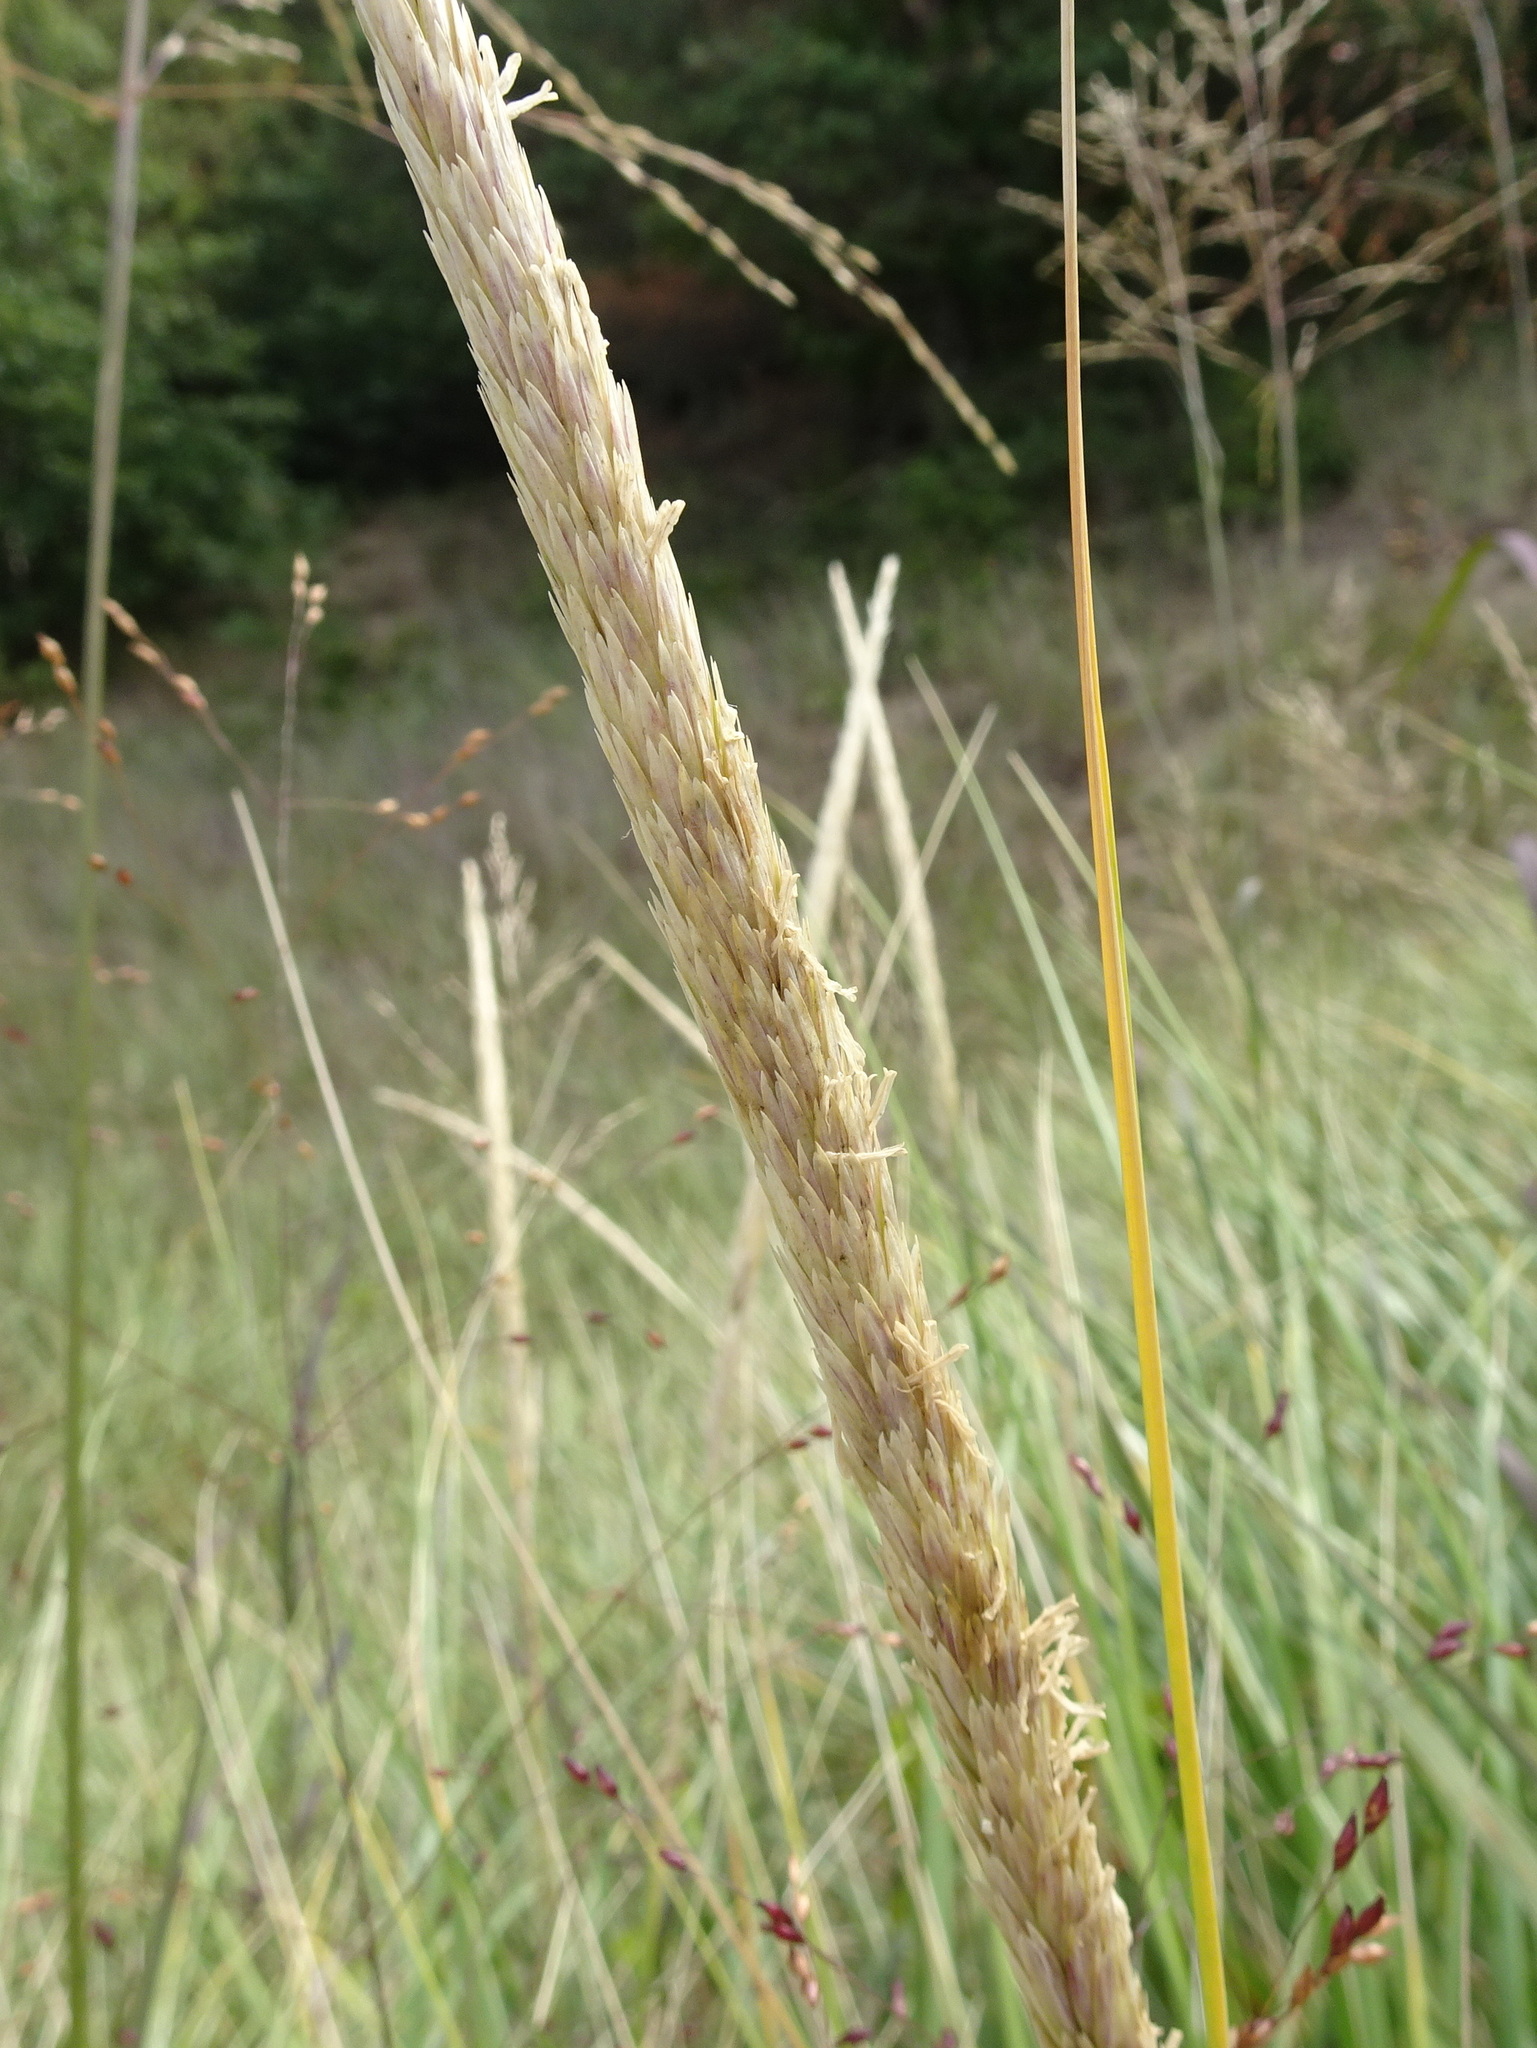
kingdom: Plantae
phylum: Tracheophyta
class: Liliopsida
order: Poales
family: Poaceae
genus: Calamagrostis
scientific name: Calamagrostis breviligulata
